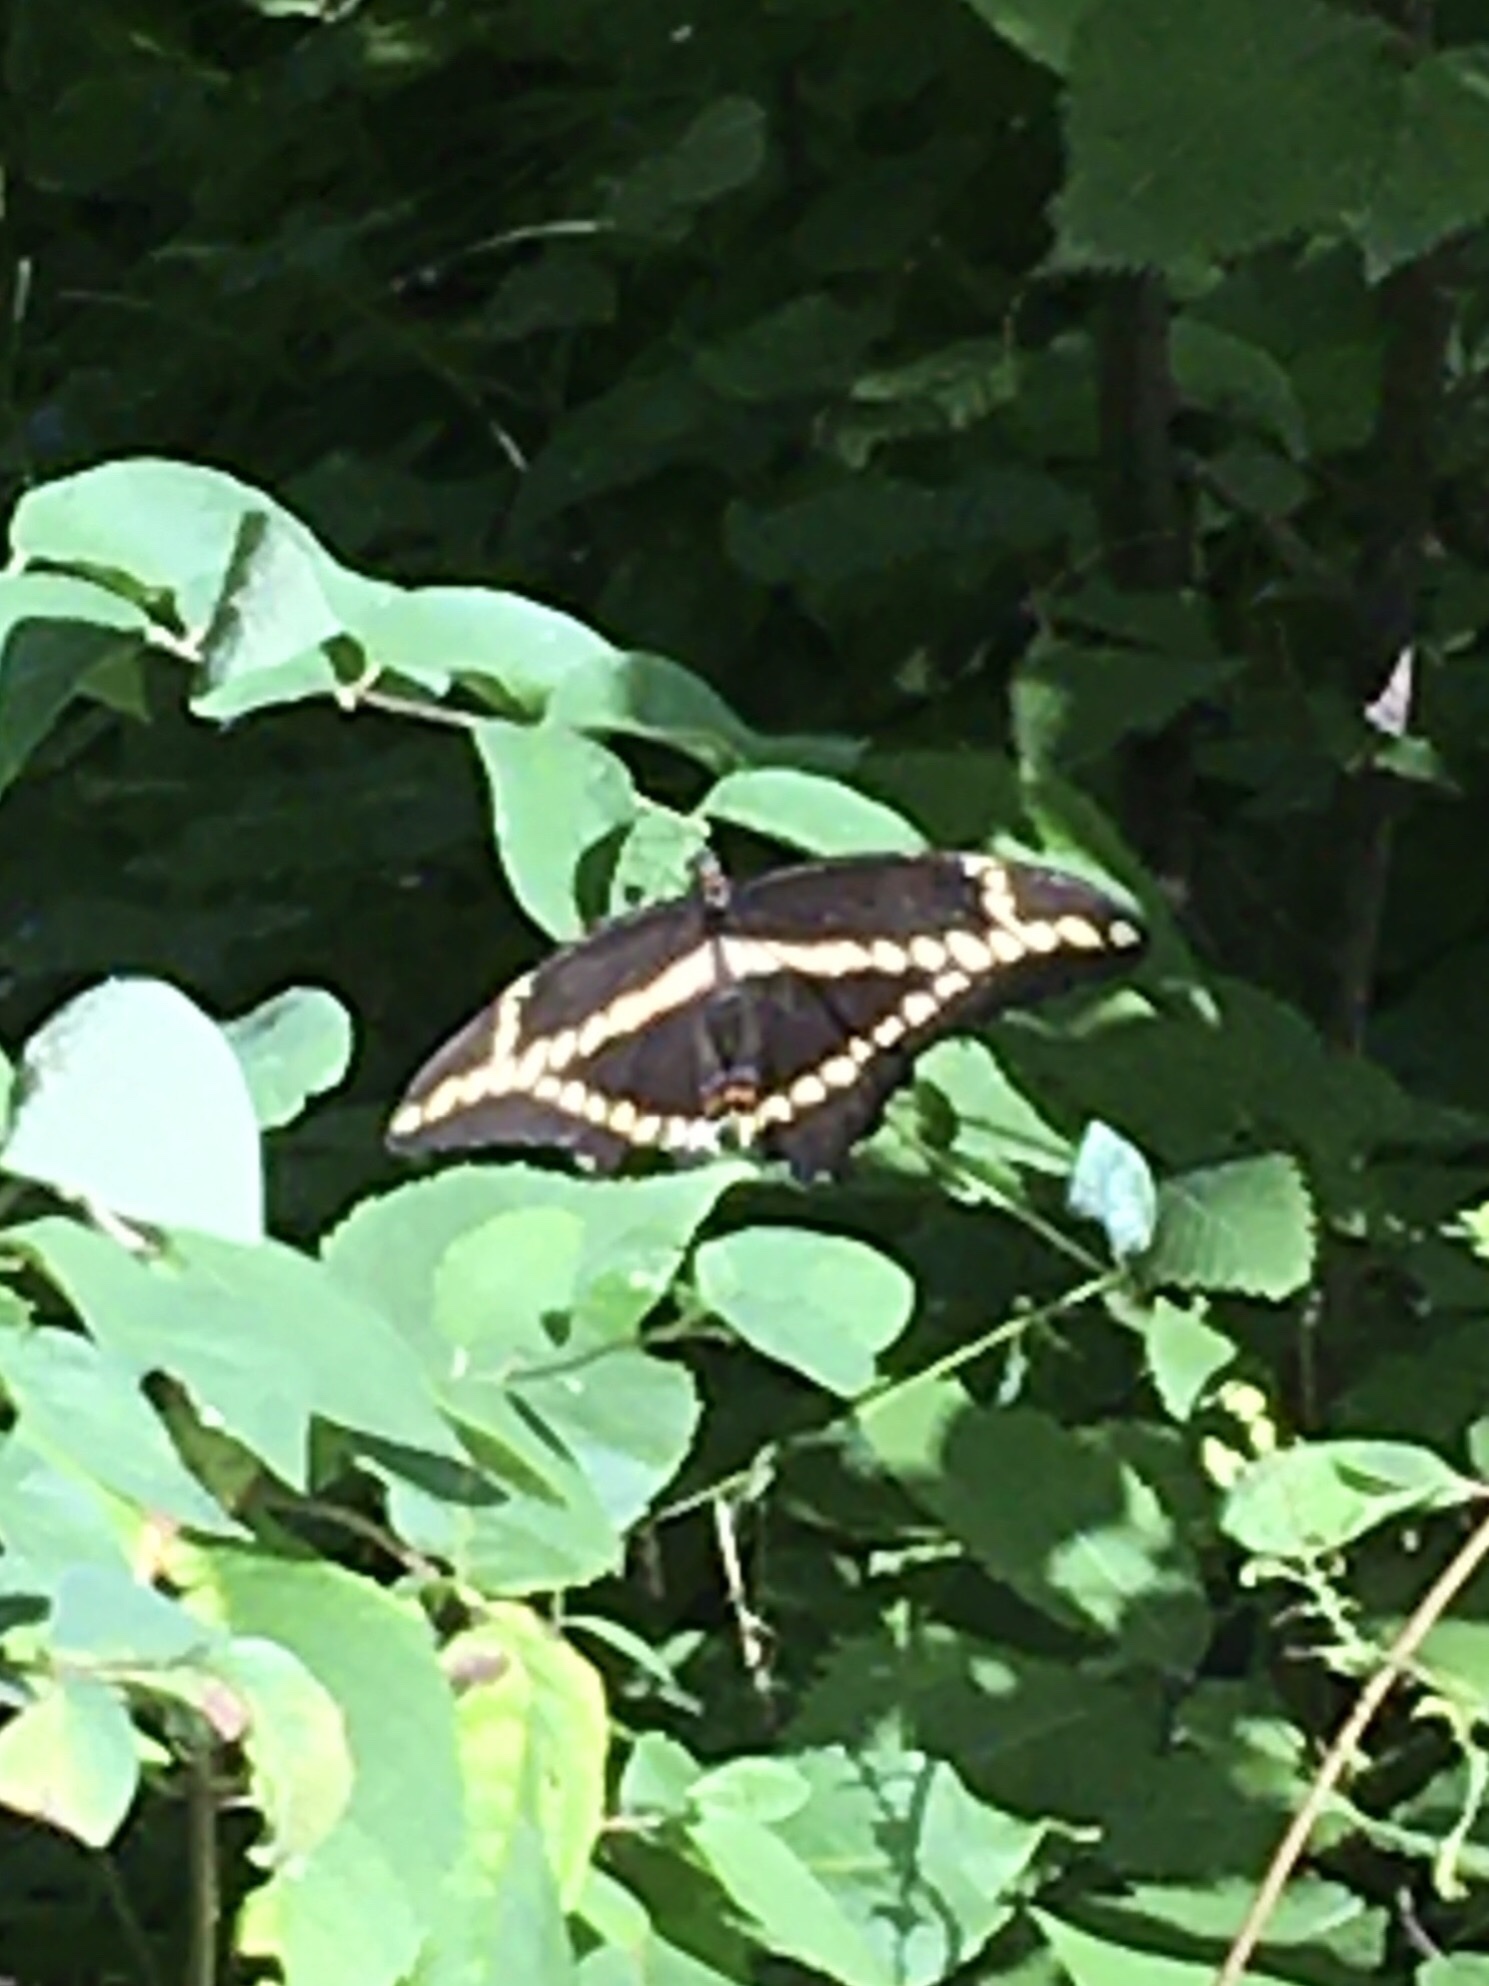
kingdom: Animalia
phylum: Arthropoda
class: Insecta
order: Lepidoptera
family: Papilionidae
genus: Papilio
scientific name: Papilio cresphontes
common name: Giant swallowtail
